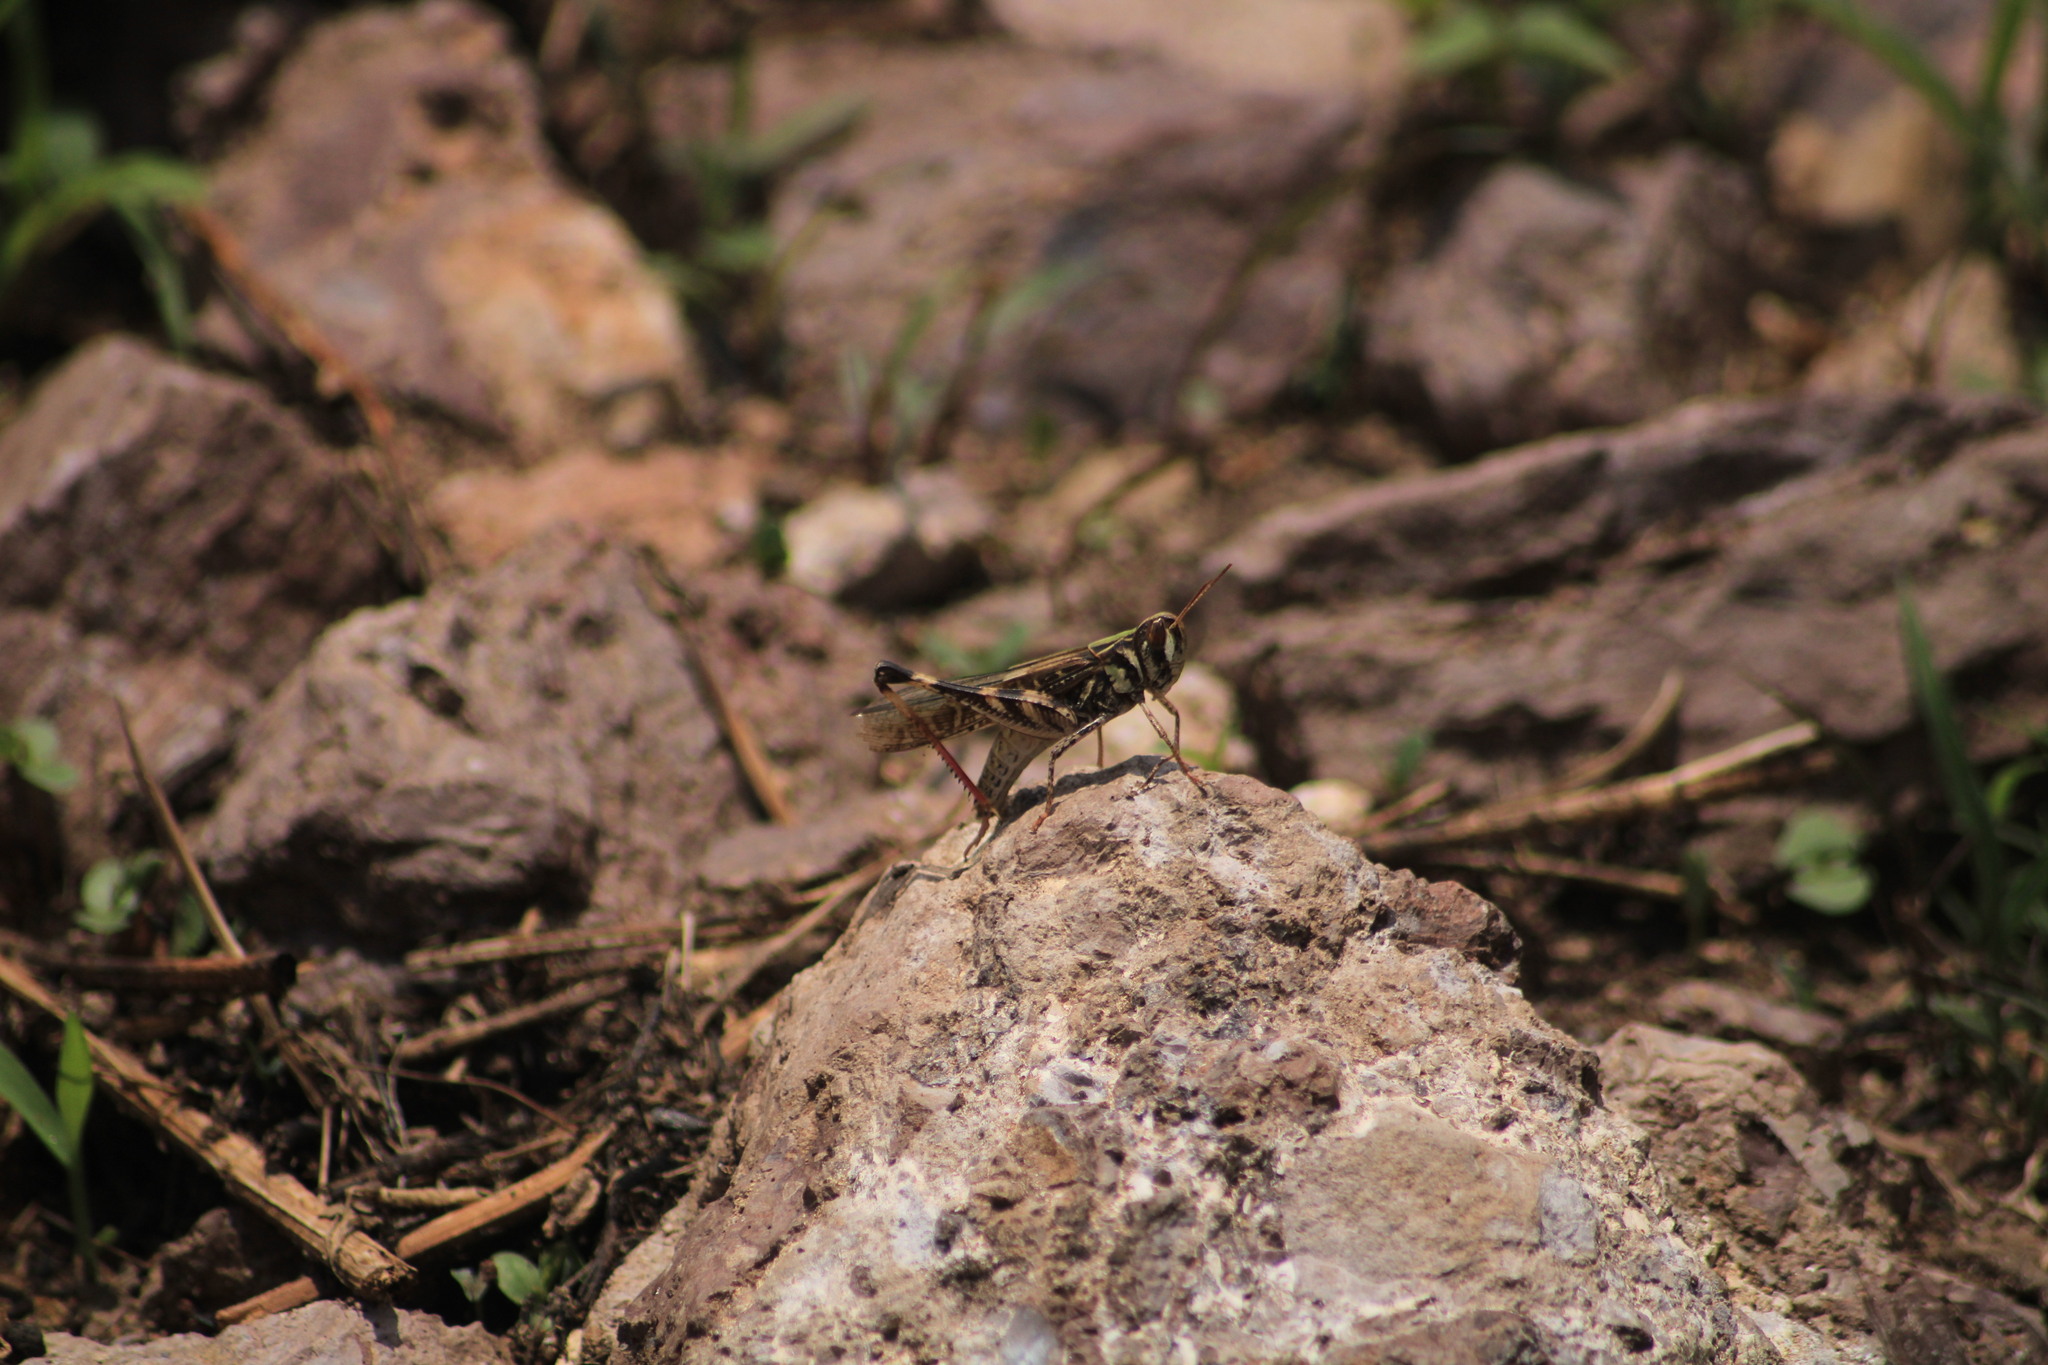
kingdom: Animalia
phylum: Arthropoda
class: Insecta
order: Orthoptera
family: Acrididae
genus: Rhammatocerus
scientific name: Rhammatocerus viatorius
